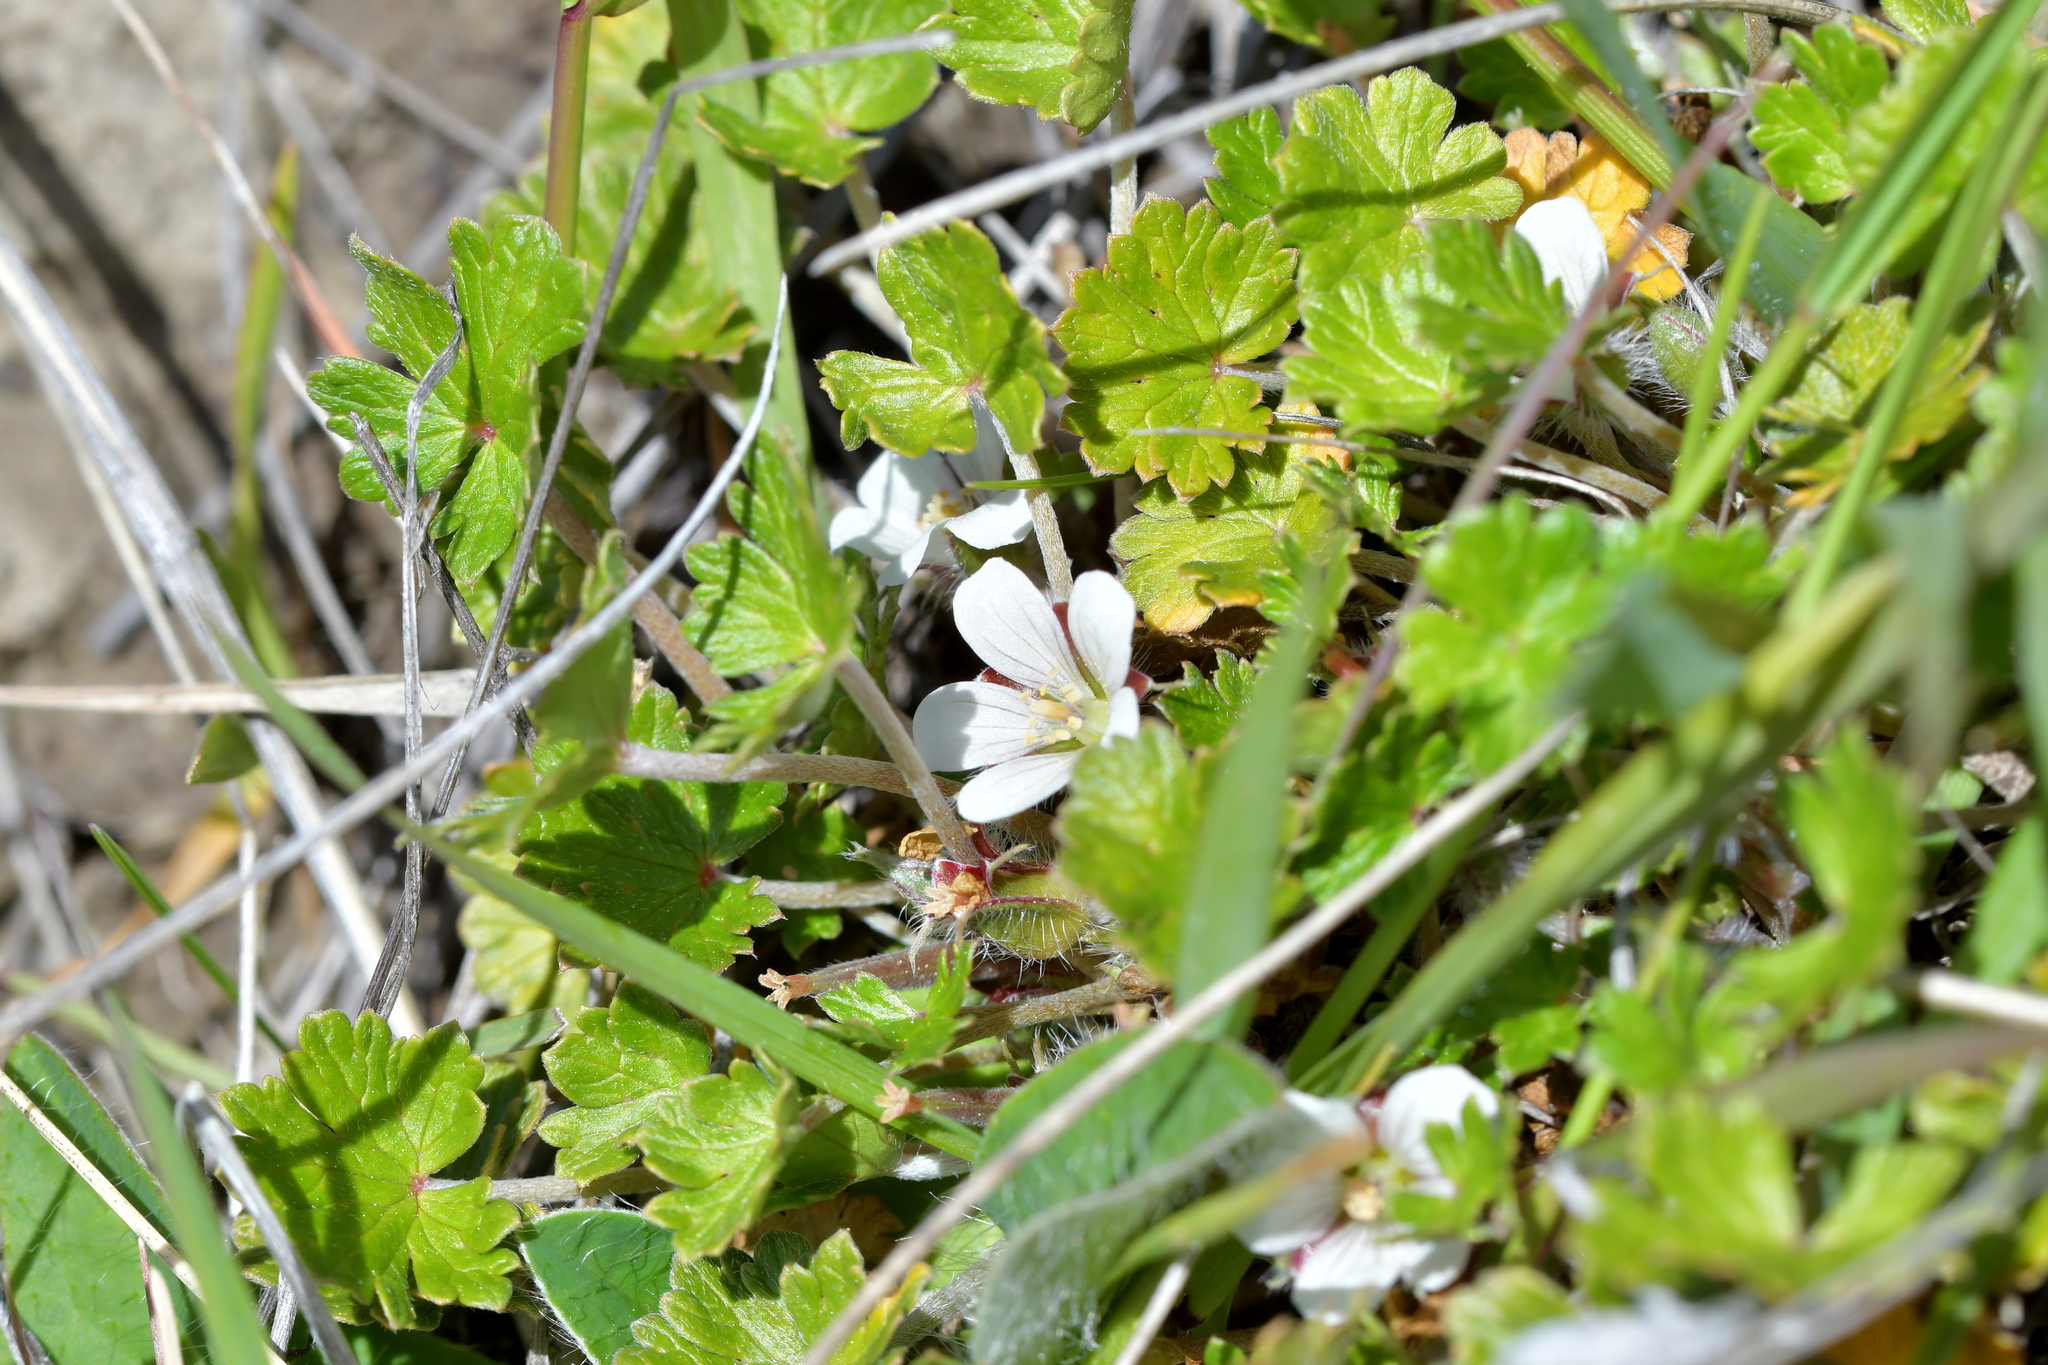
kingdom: Plantae
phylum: Tracheophyta
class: Magnoliopsida
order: Geraniales
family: Geraniaceae
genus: Geranium
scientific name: Geranium brevicaule
